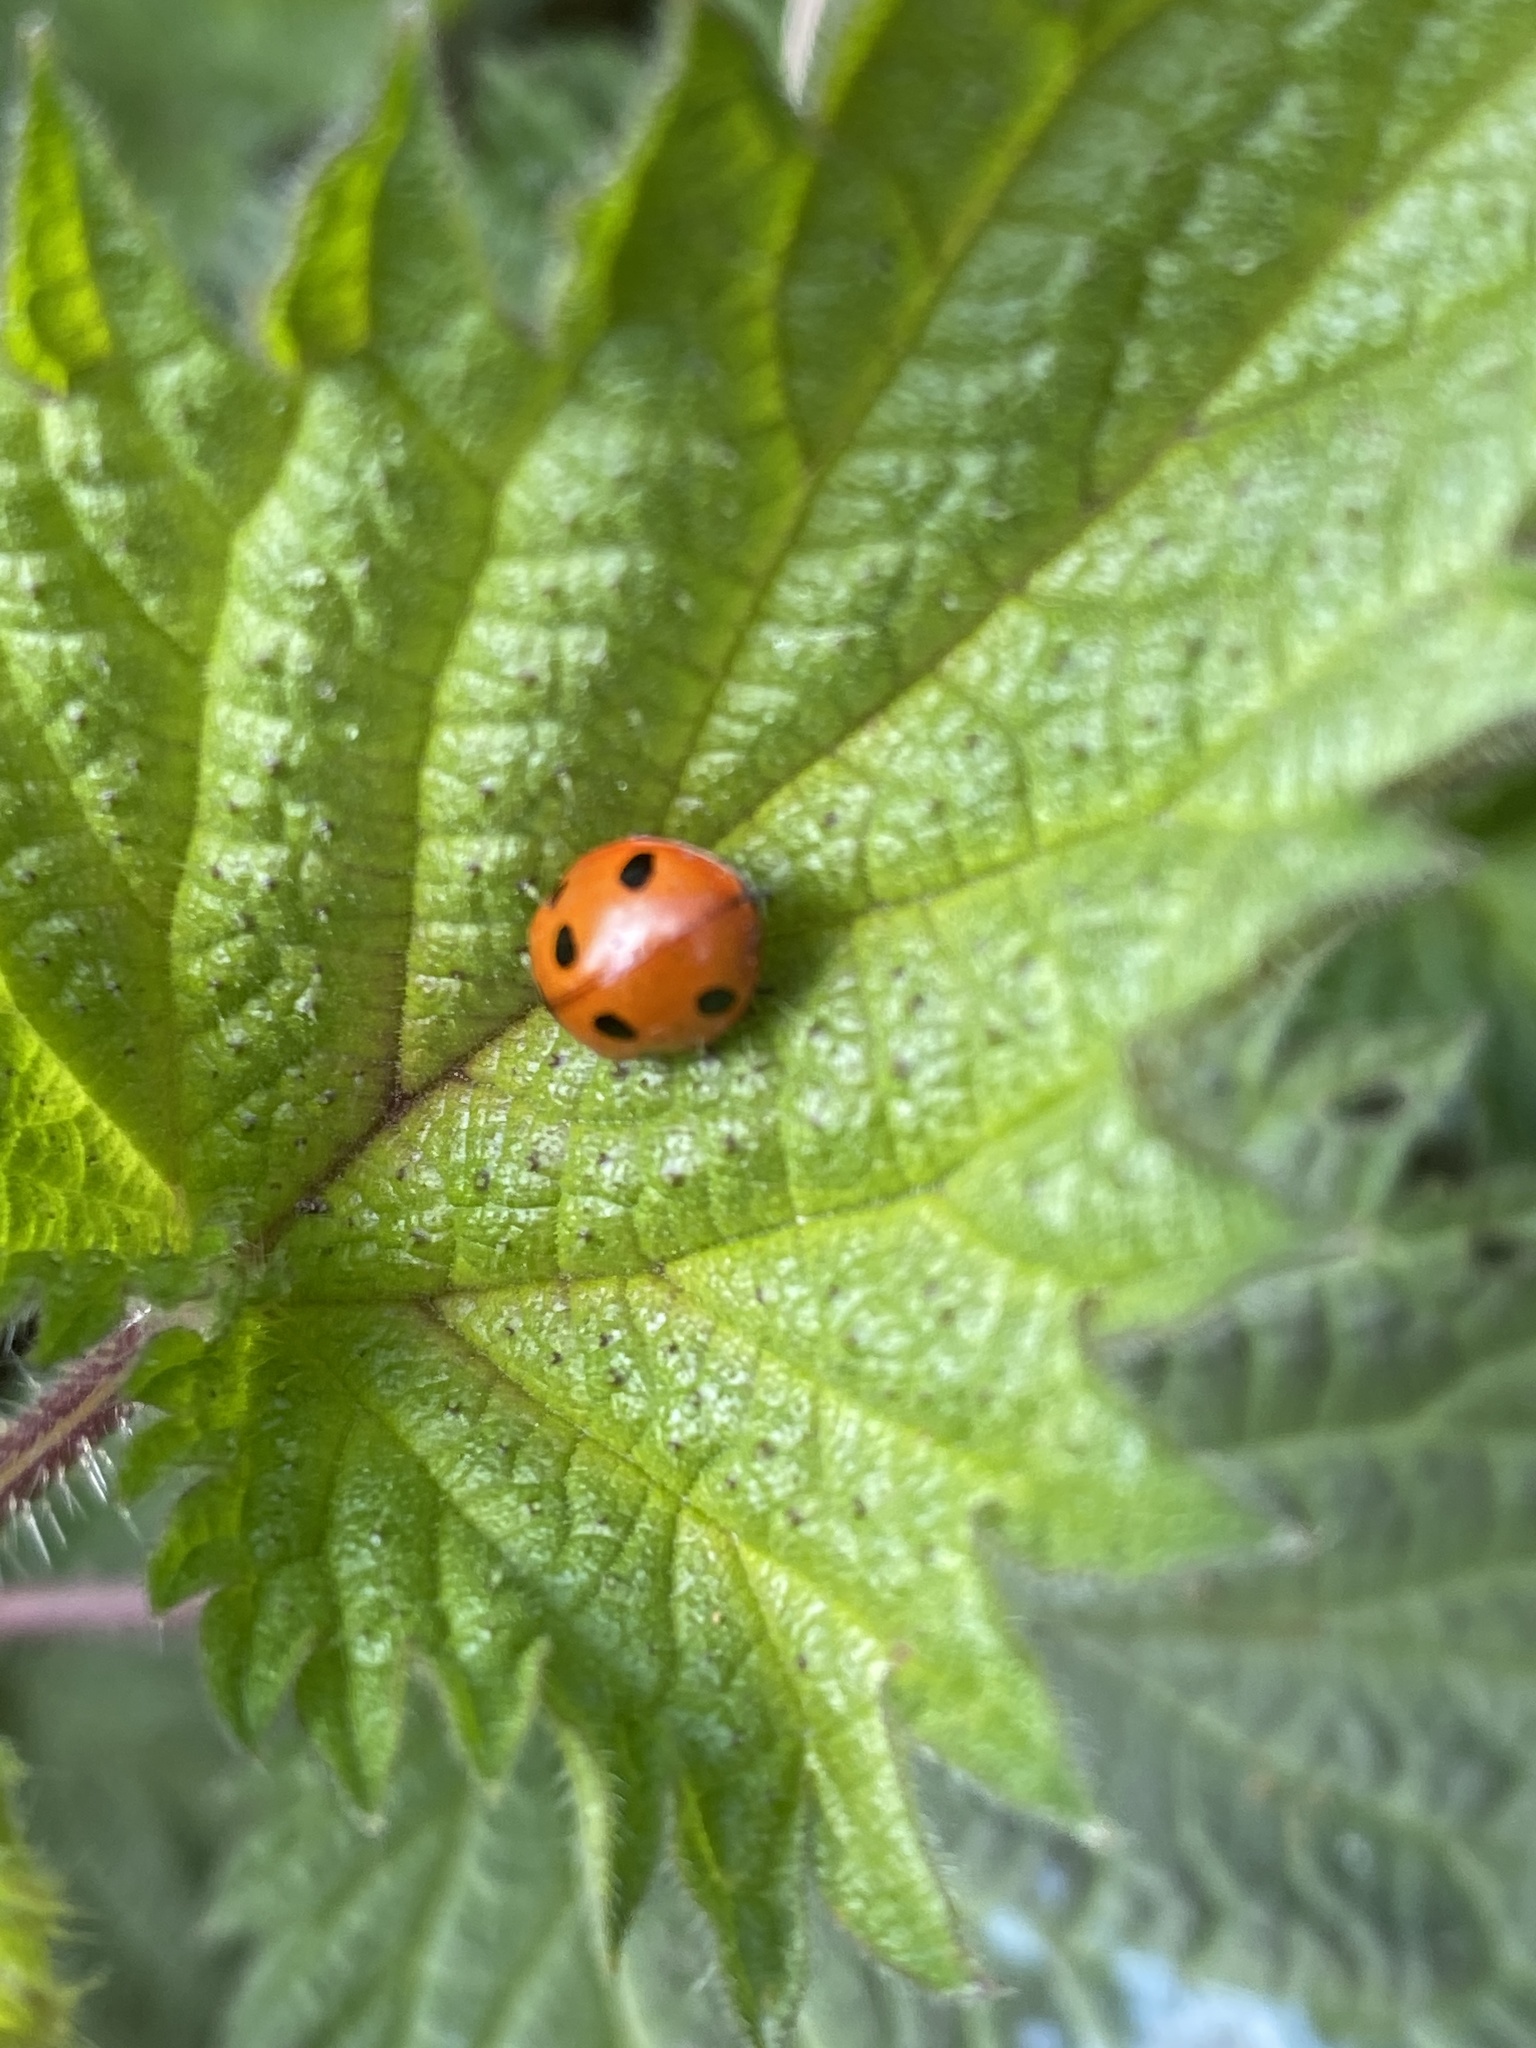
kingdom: Animalia
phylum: Arthropoda
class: Insecta
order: Coleoptera
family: Coccinellidae
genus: Coccinella
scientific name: Coccinella septempunctata
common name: Sevenspotted lady beetle
